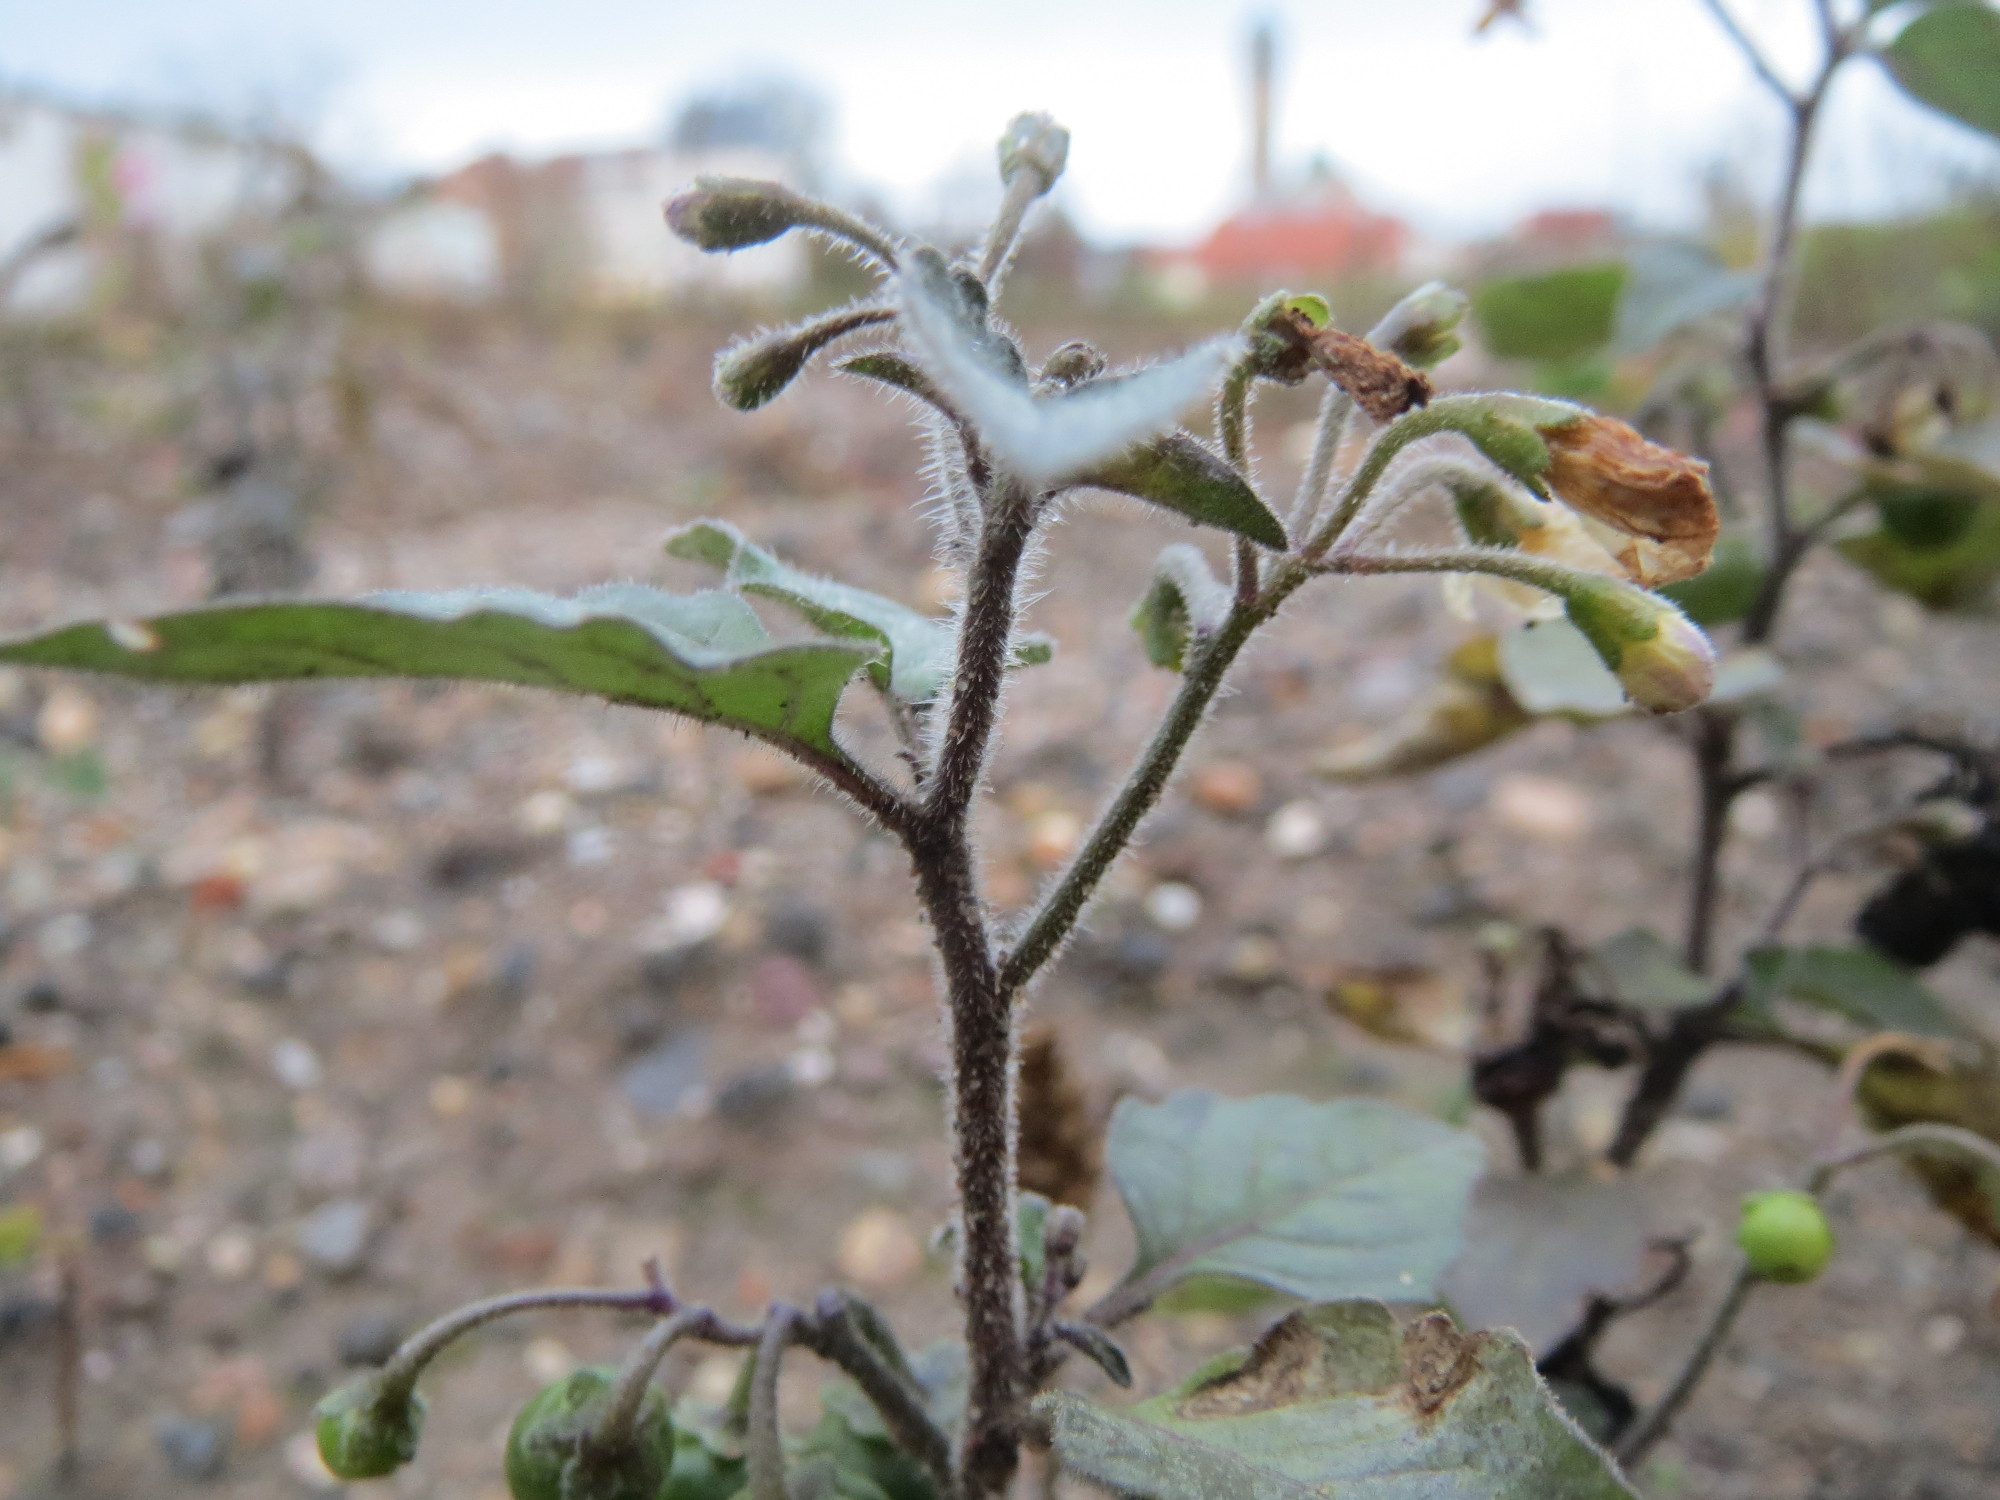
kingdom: Plantae
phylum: Tracheophyta
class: Magnoliopsida
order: Solanales
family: Solanaceae
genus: Solanum
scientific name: Solanum nigrum
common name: Black nightshade
